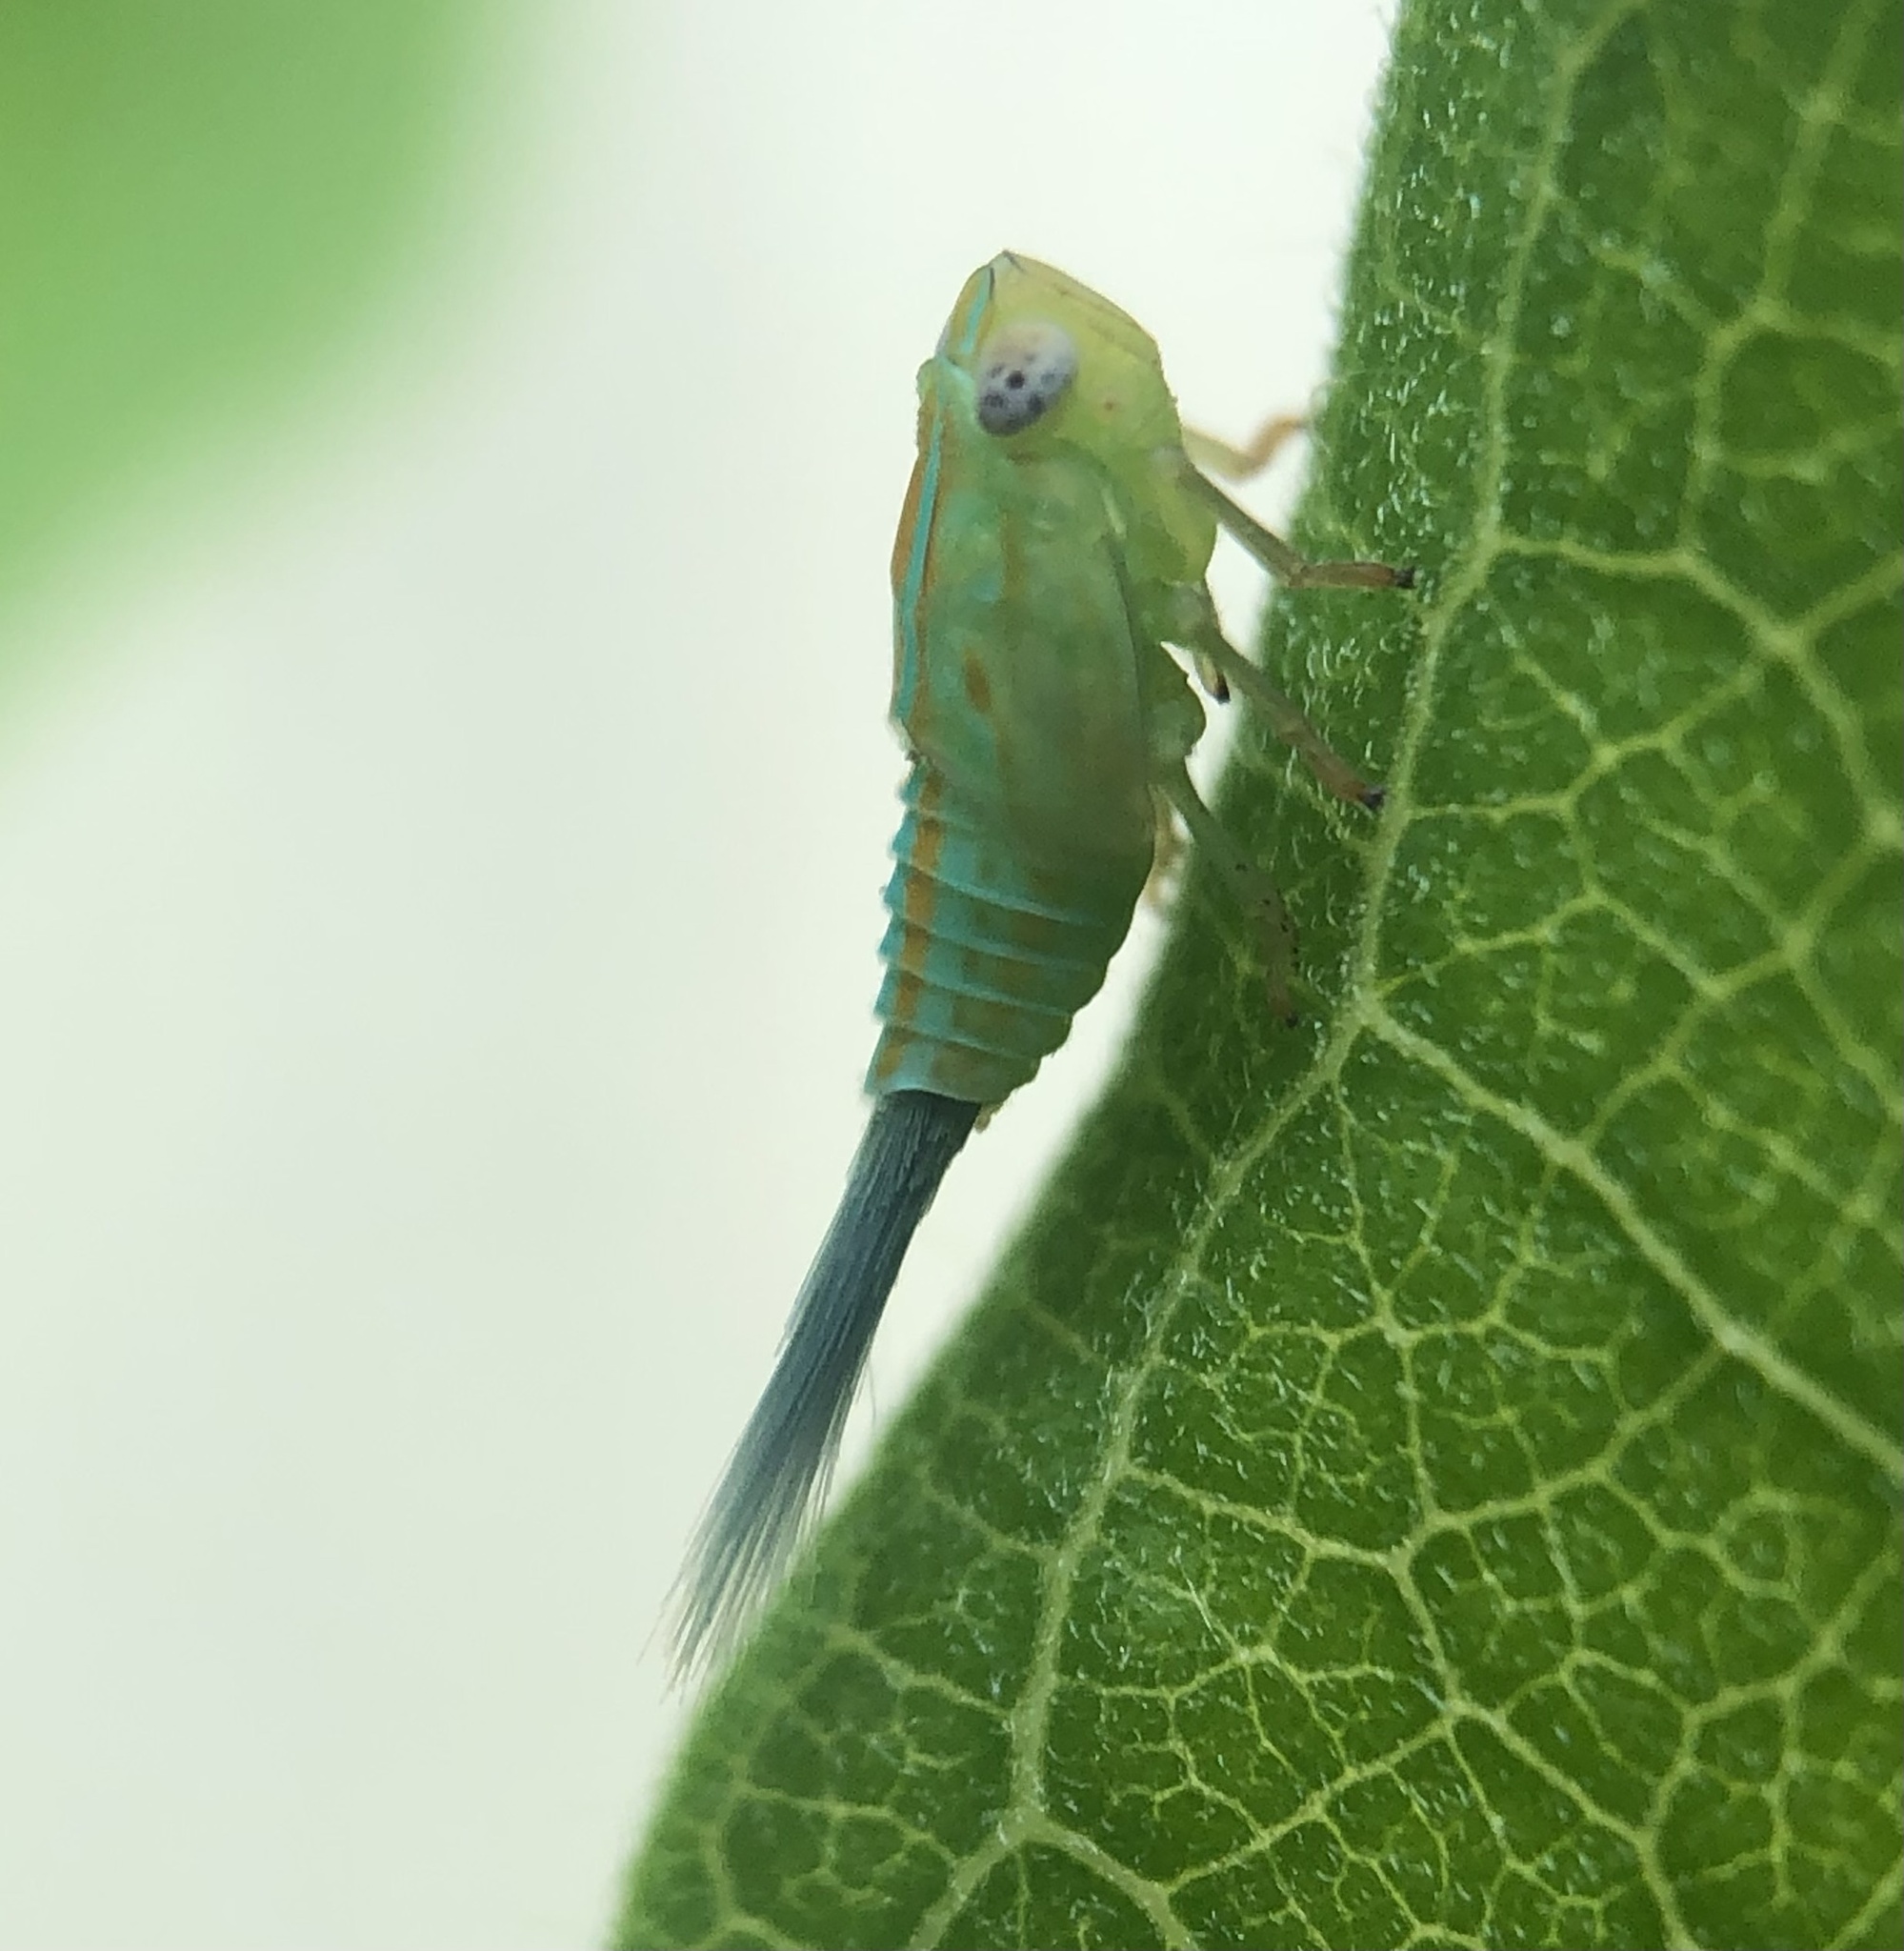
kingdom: Animalia
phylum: Arthropoda
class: Insecta
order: Hemiptera
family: Issidae
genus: Aplos
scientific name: Aplos simplex
